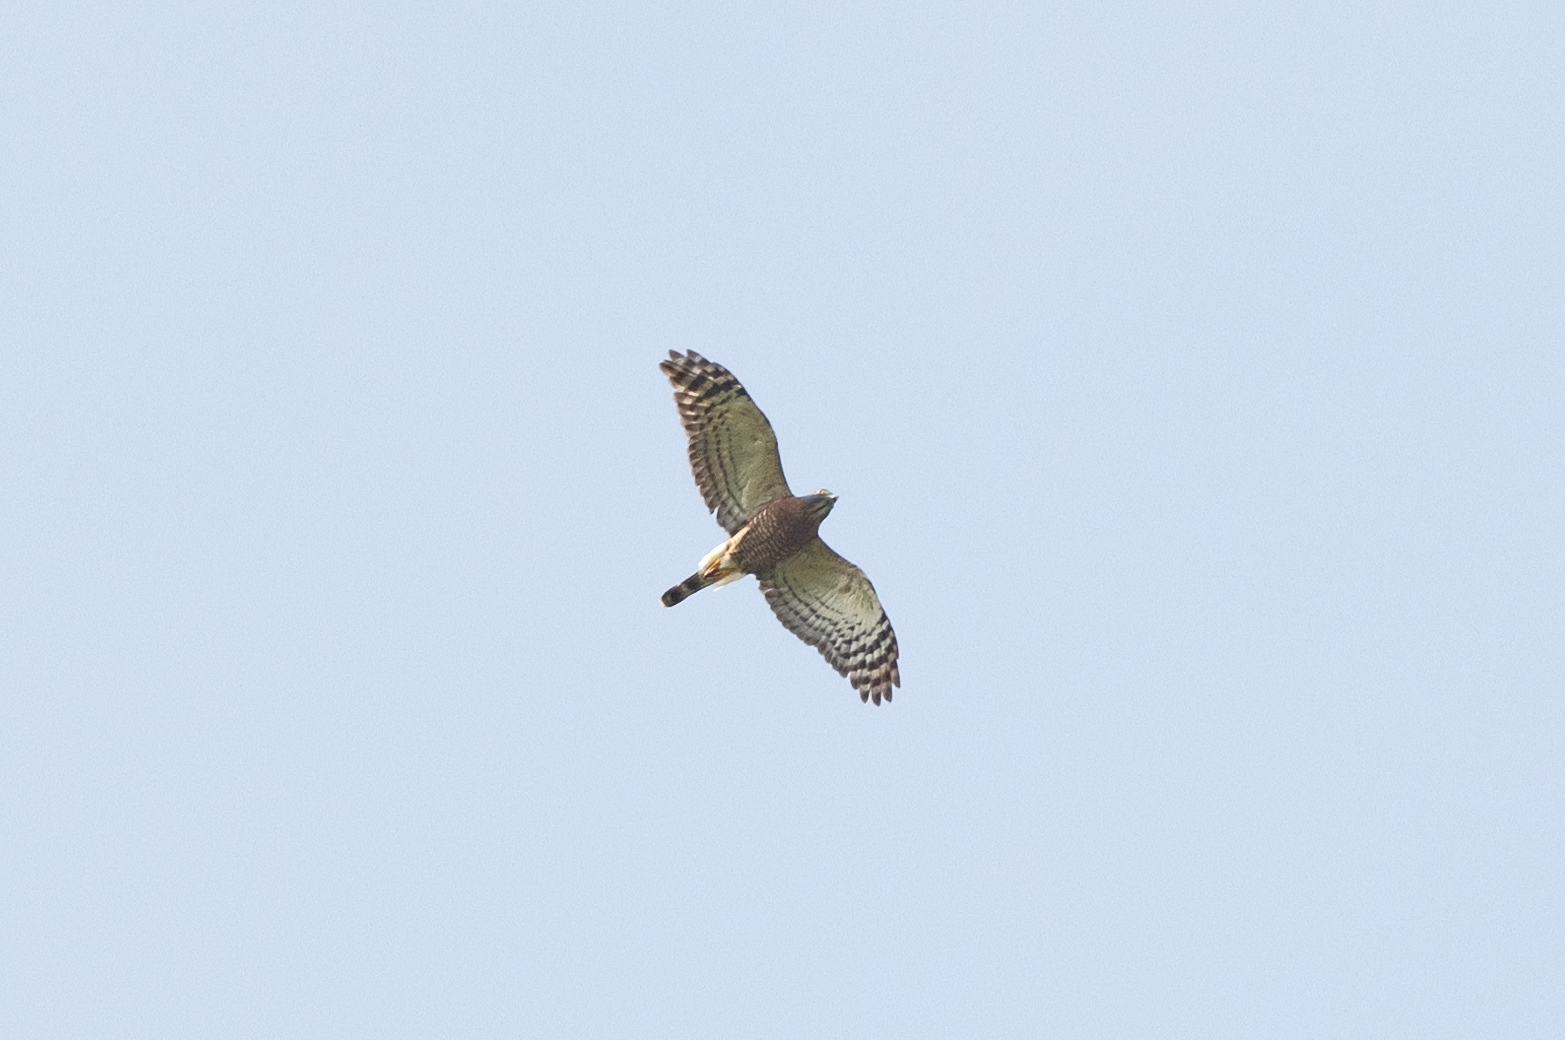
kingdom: Animalia
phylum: Chordata
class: Aves
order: Accipitriformes
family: Accipitridae
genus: Harpagus
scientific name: Harpagus bidentatus
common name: Double-toothed kite
